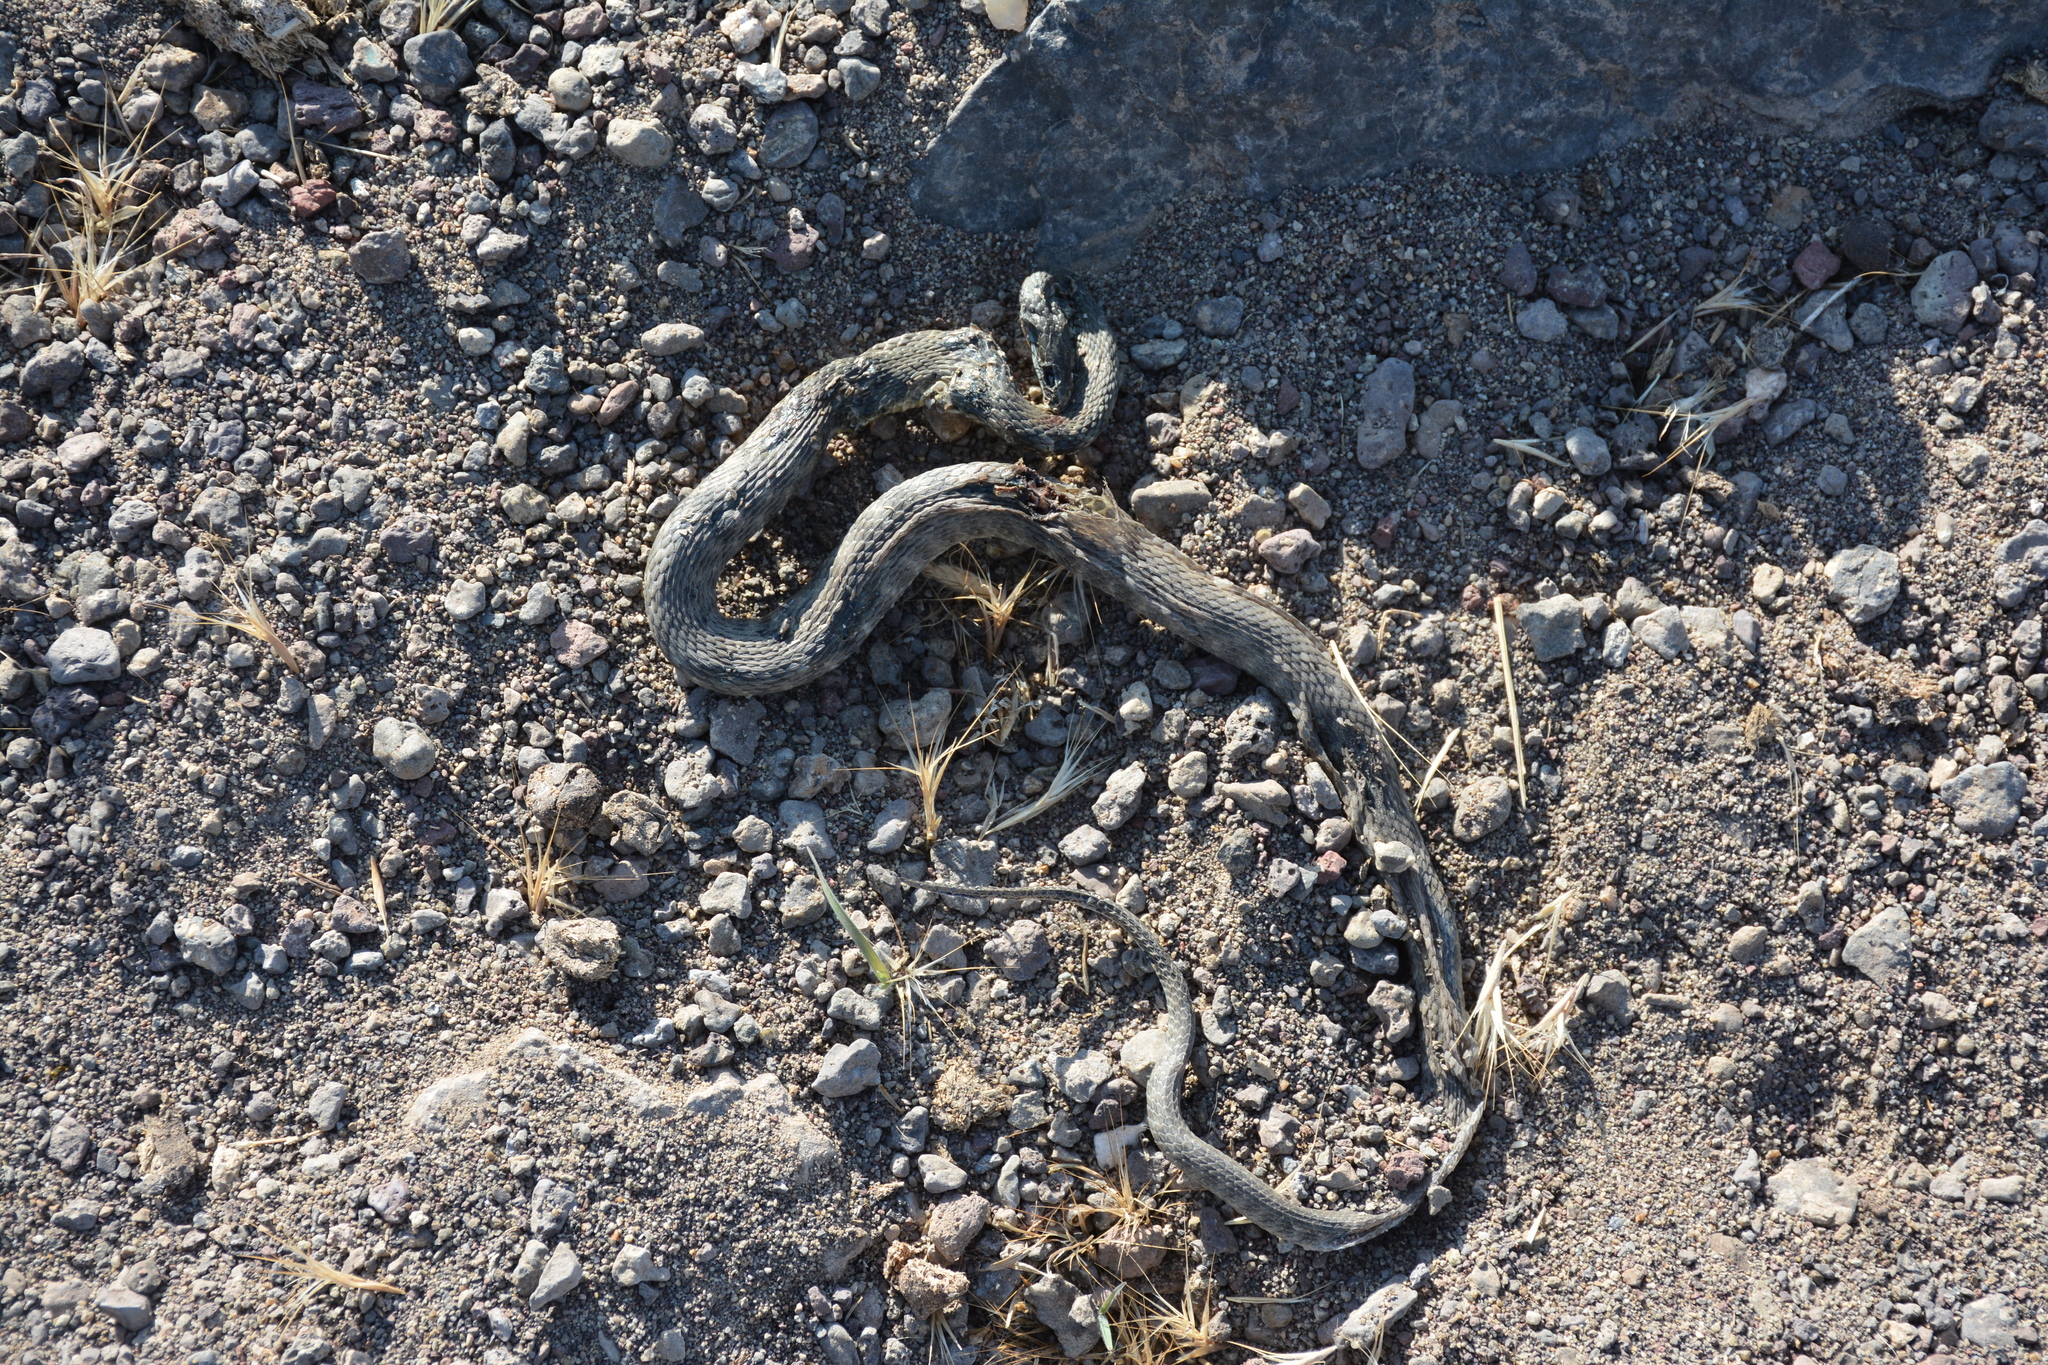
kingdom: Animalia
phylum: Chordata
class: Squamata
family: Colubridae
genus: Natrix
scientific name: Natrix tessellata
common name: Dice snake
